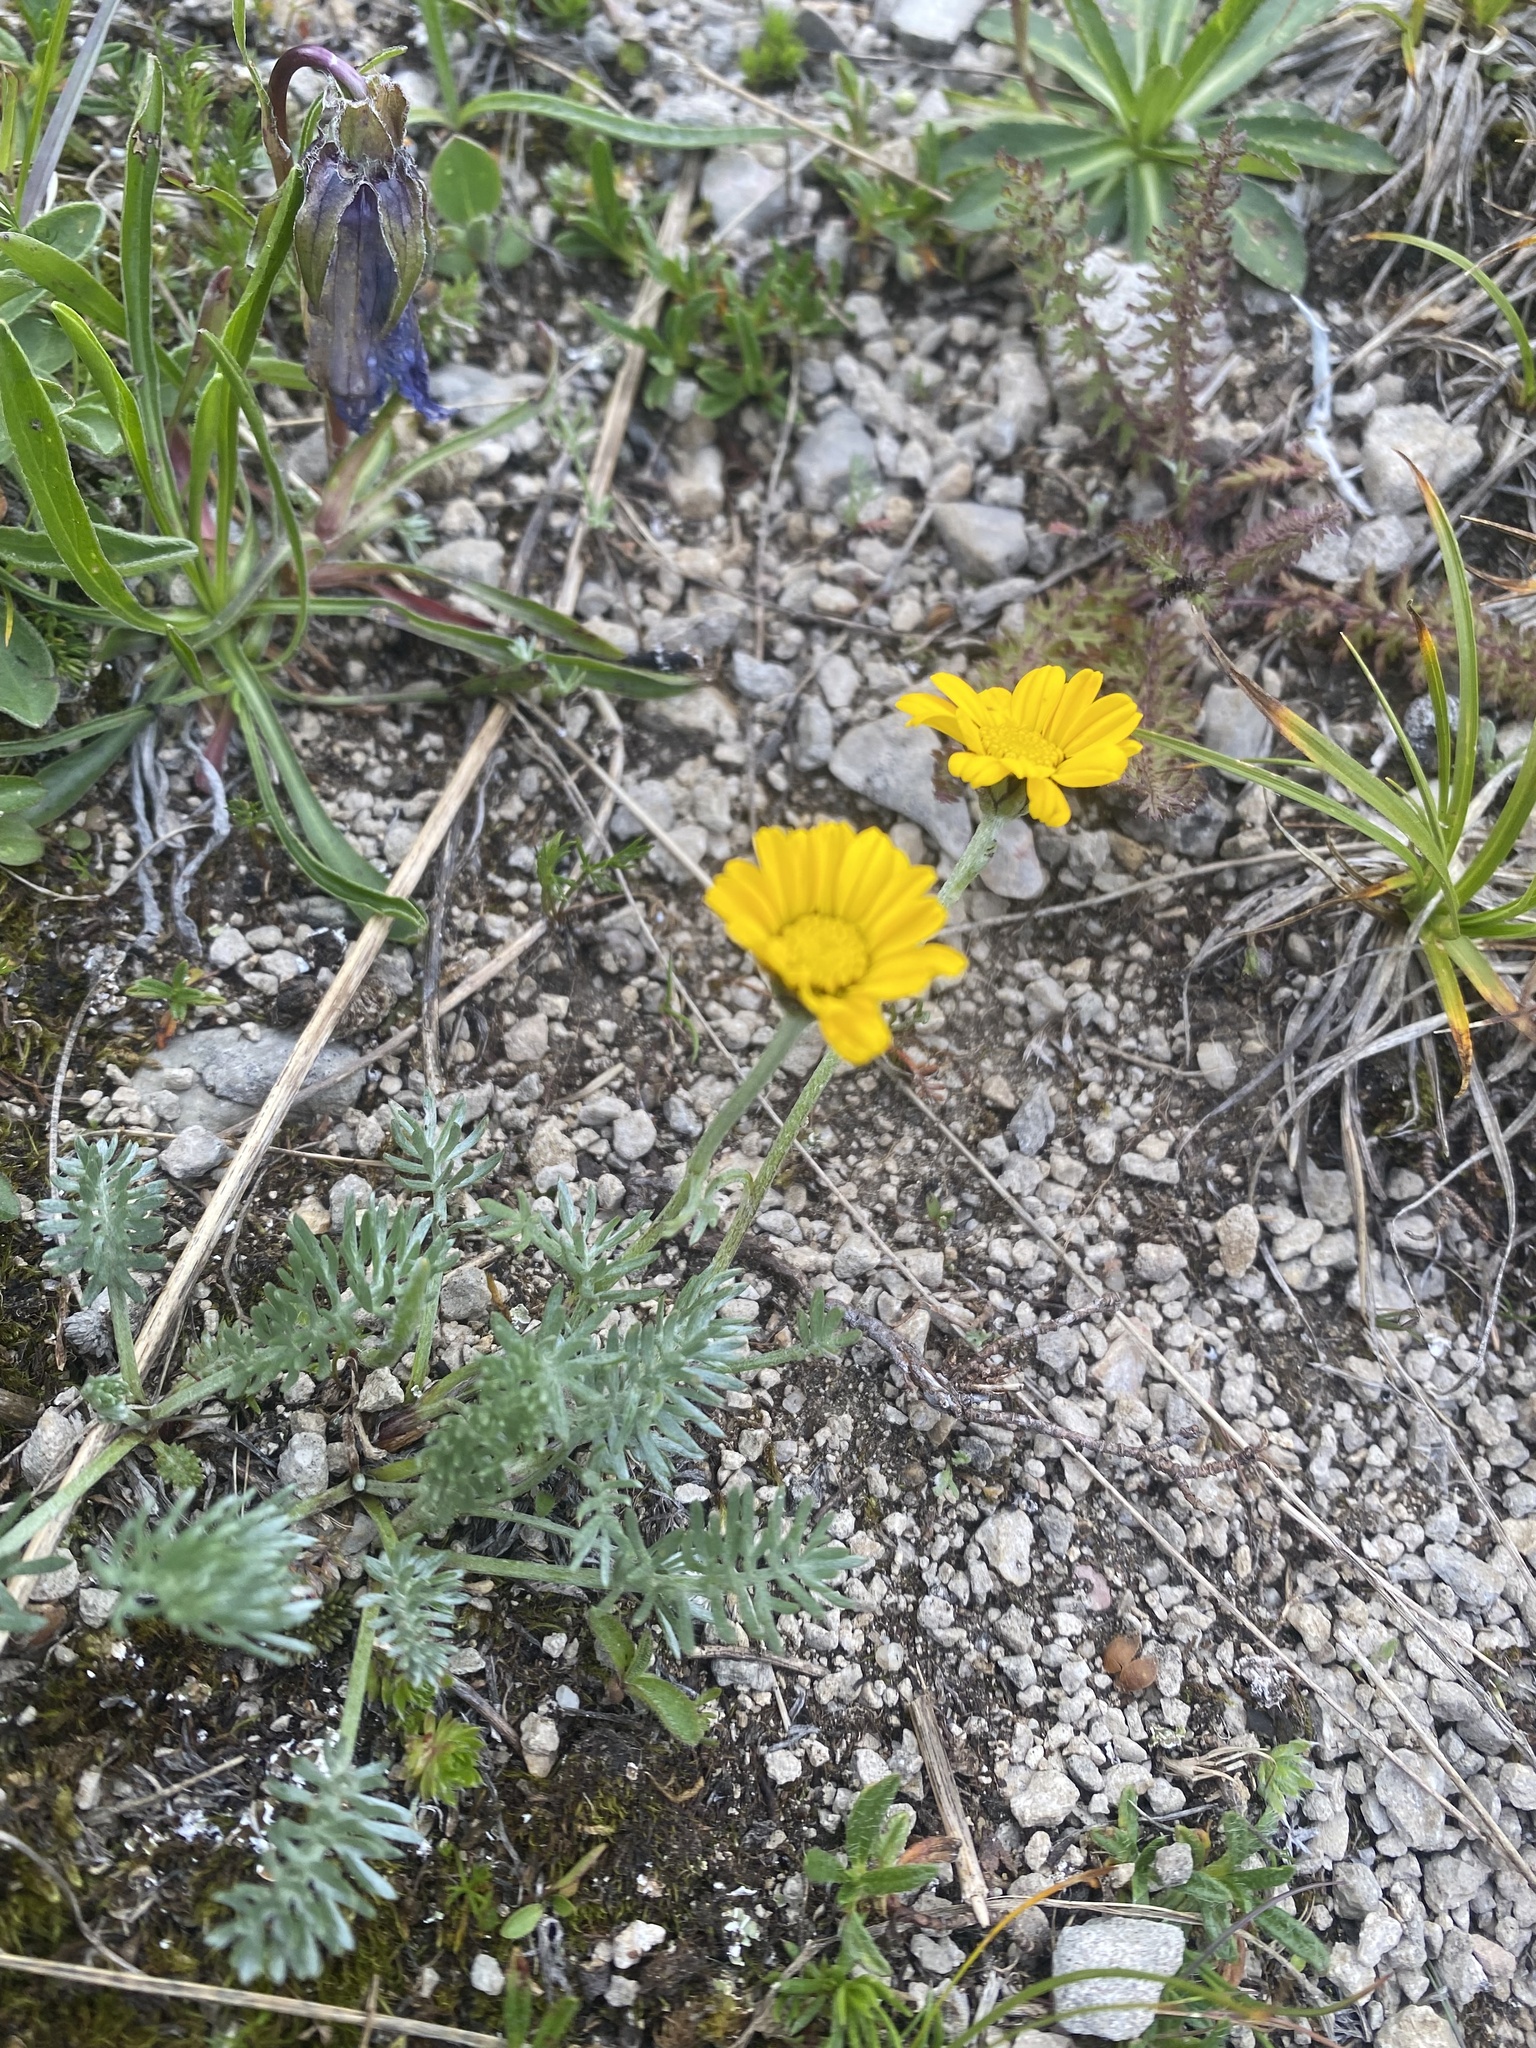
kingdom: Plantae
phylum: Tracheophyta
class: Magnoliopsida
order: Asterales
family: Asteraceae
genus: Archanthemis
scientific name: Archanthemis marschalliana
